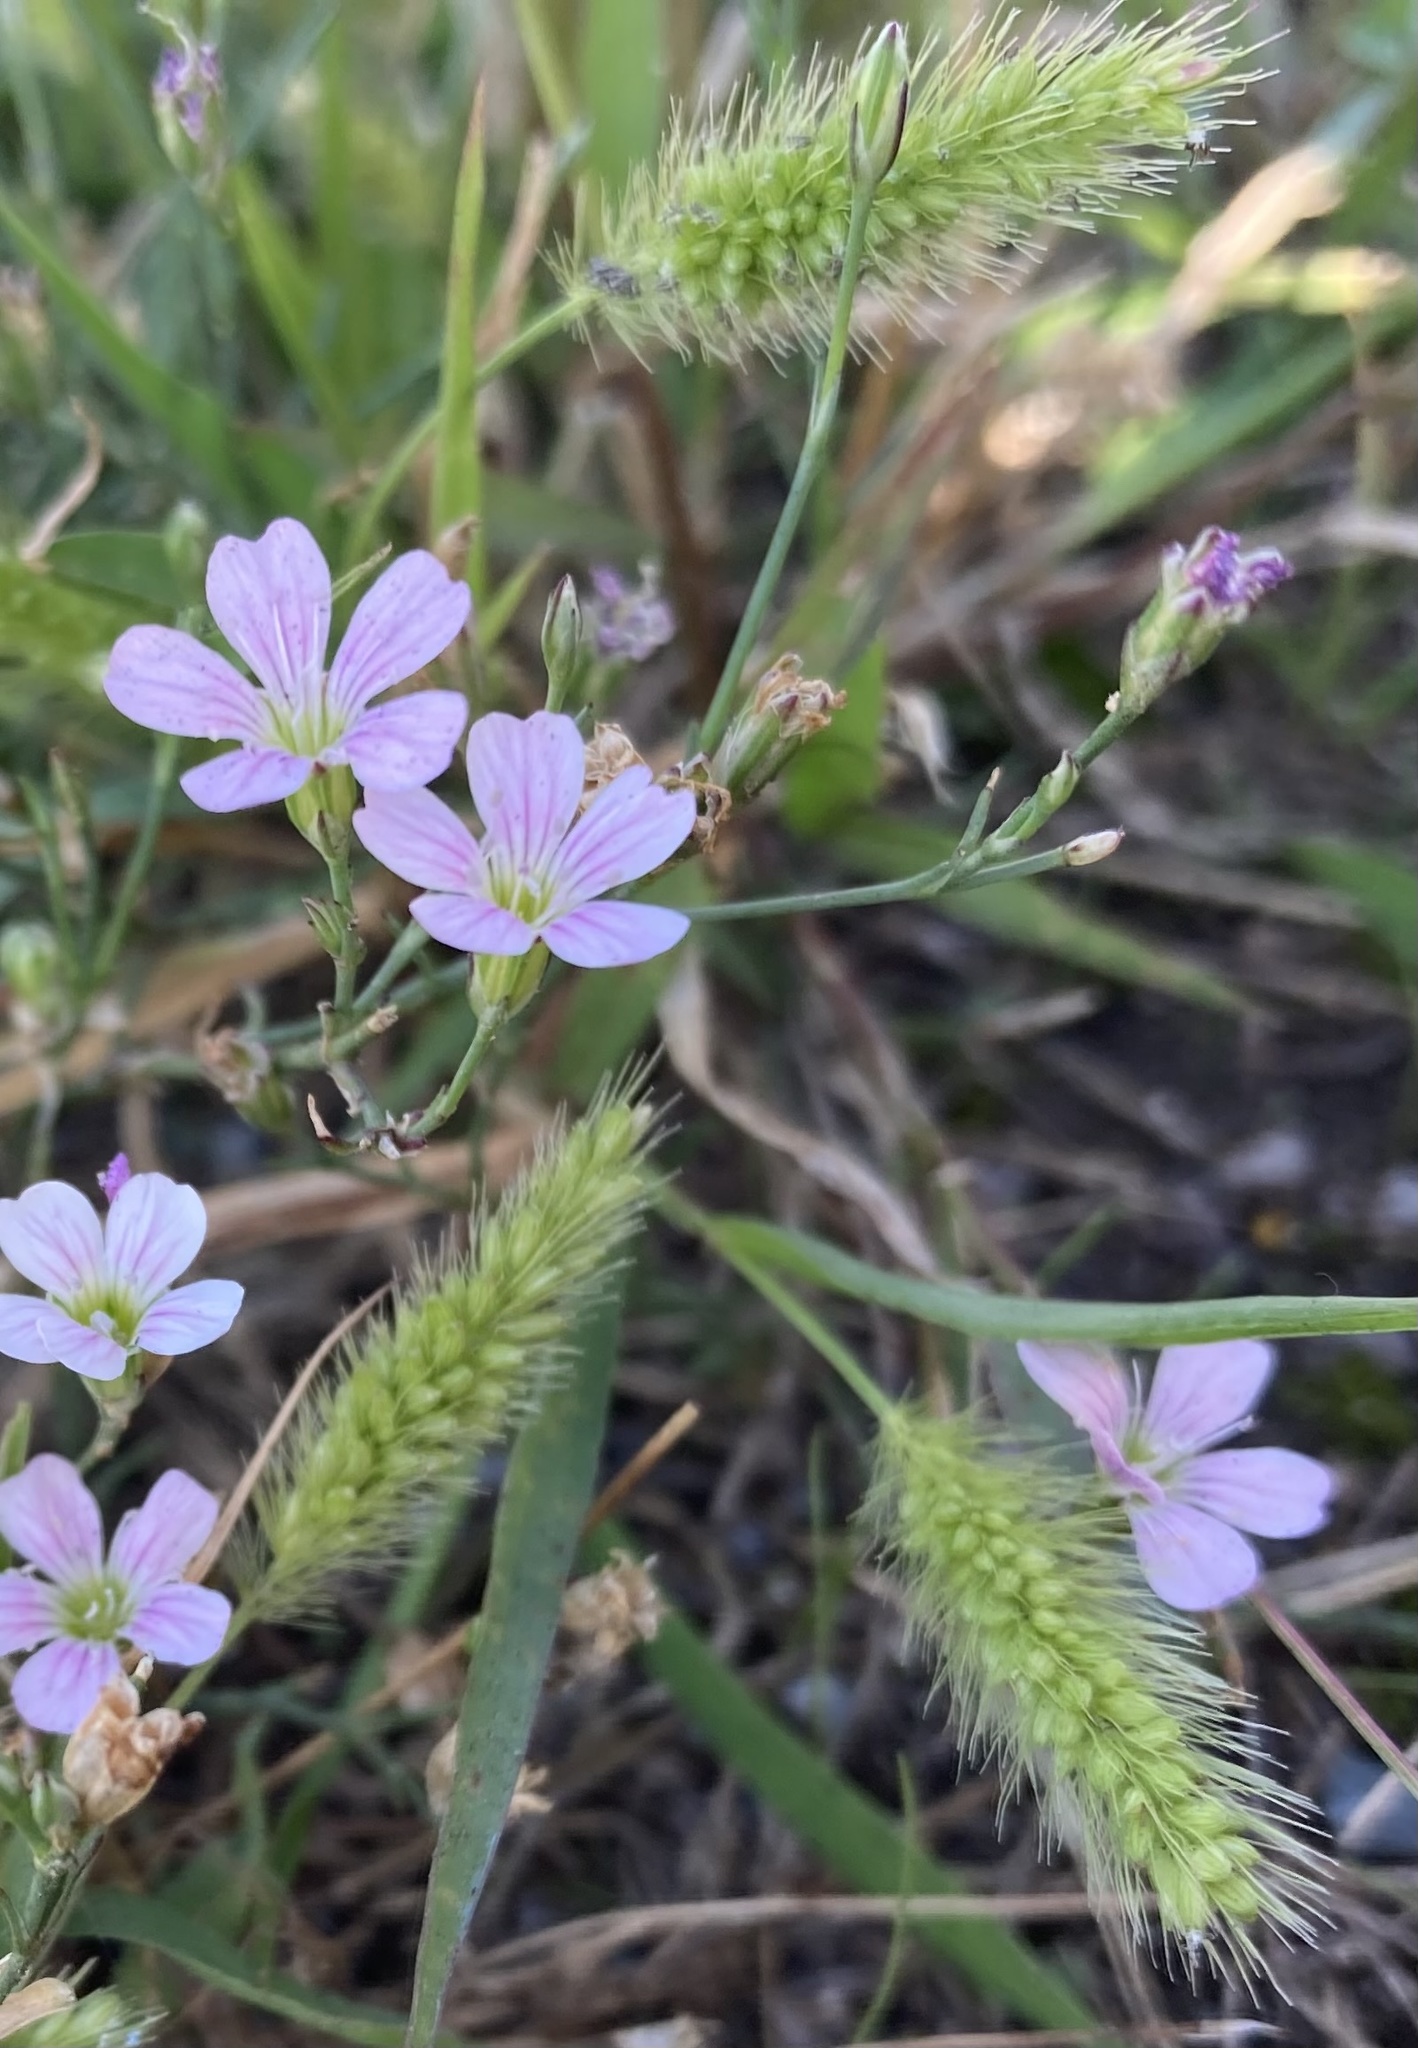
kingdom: Plantae
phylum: Tracheophyta
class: Liliopsida
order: Poales
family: Poaceae
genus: Setaria
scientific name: Setaria viridis
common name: Green bristlegrass
